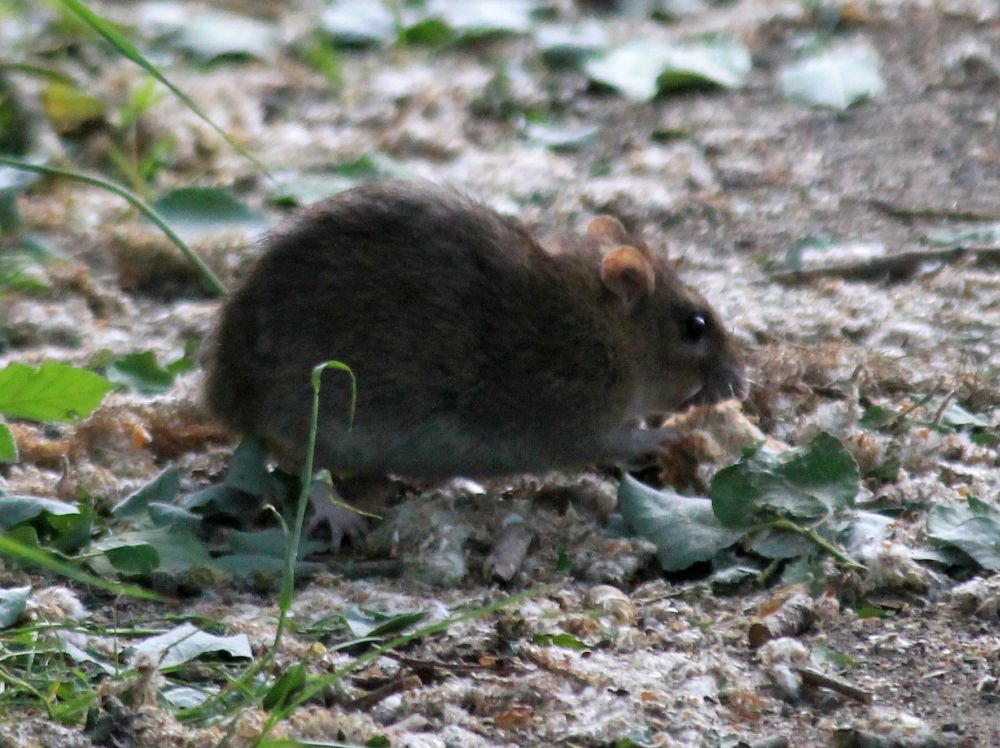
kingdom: Animalia
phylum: Chordata
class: Mammalia
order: Rodentia
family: Muridae
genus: Rattus
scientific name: Rattus norvegicus
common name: Brown rat
